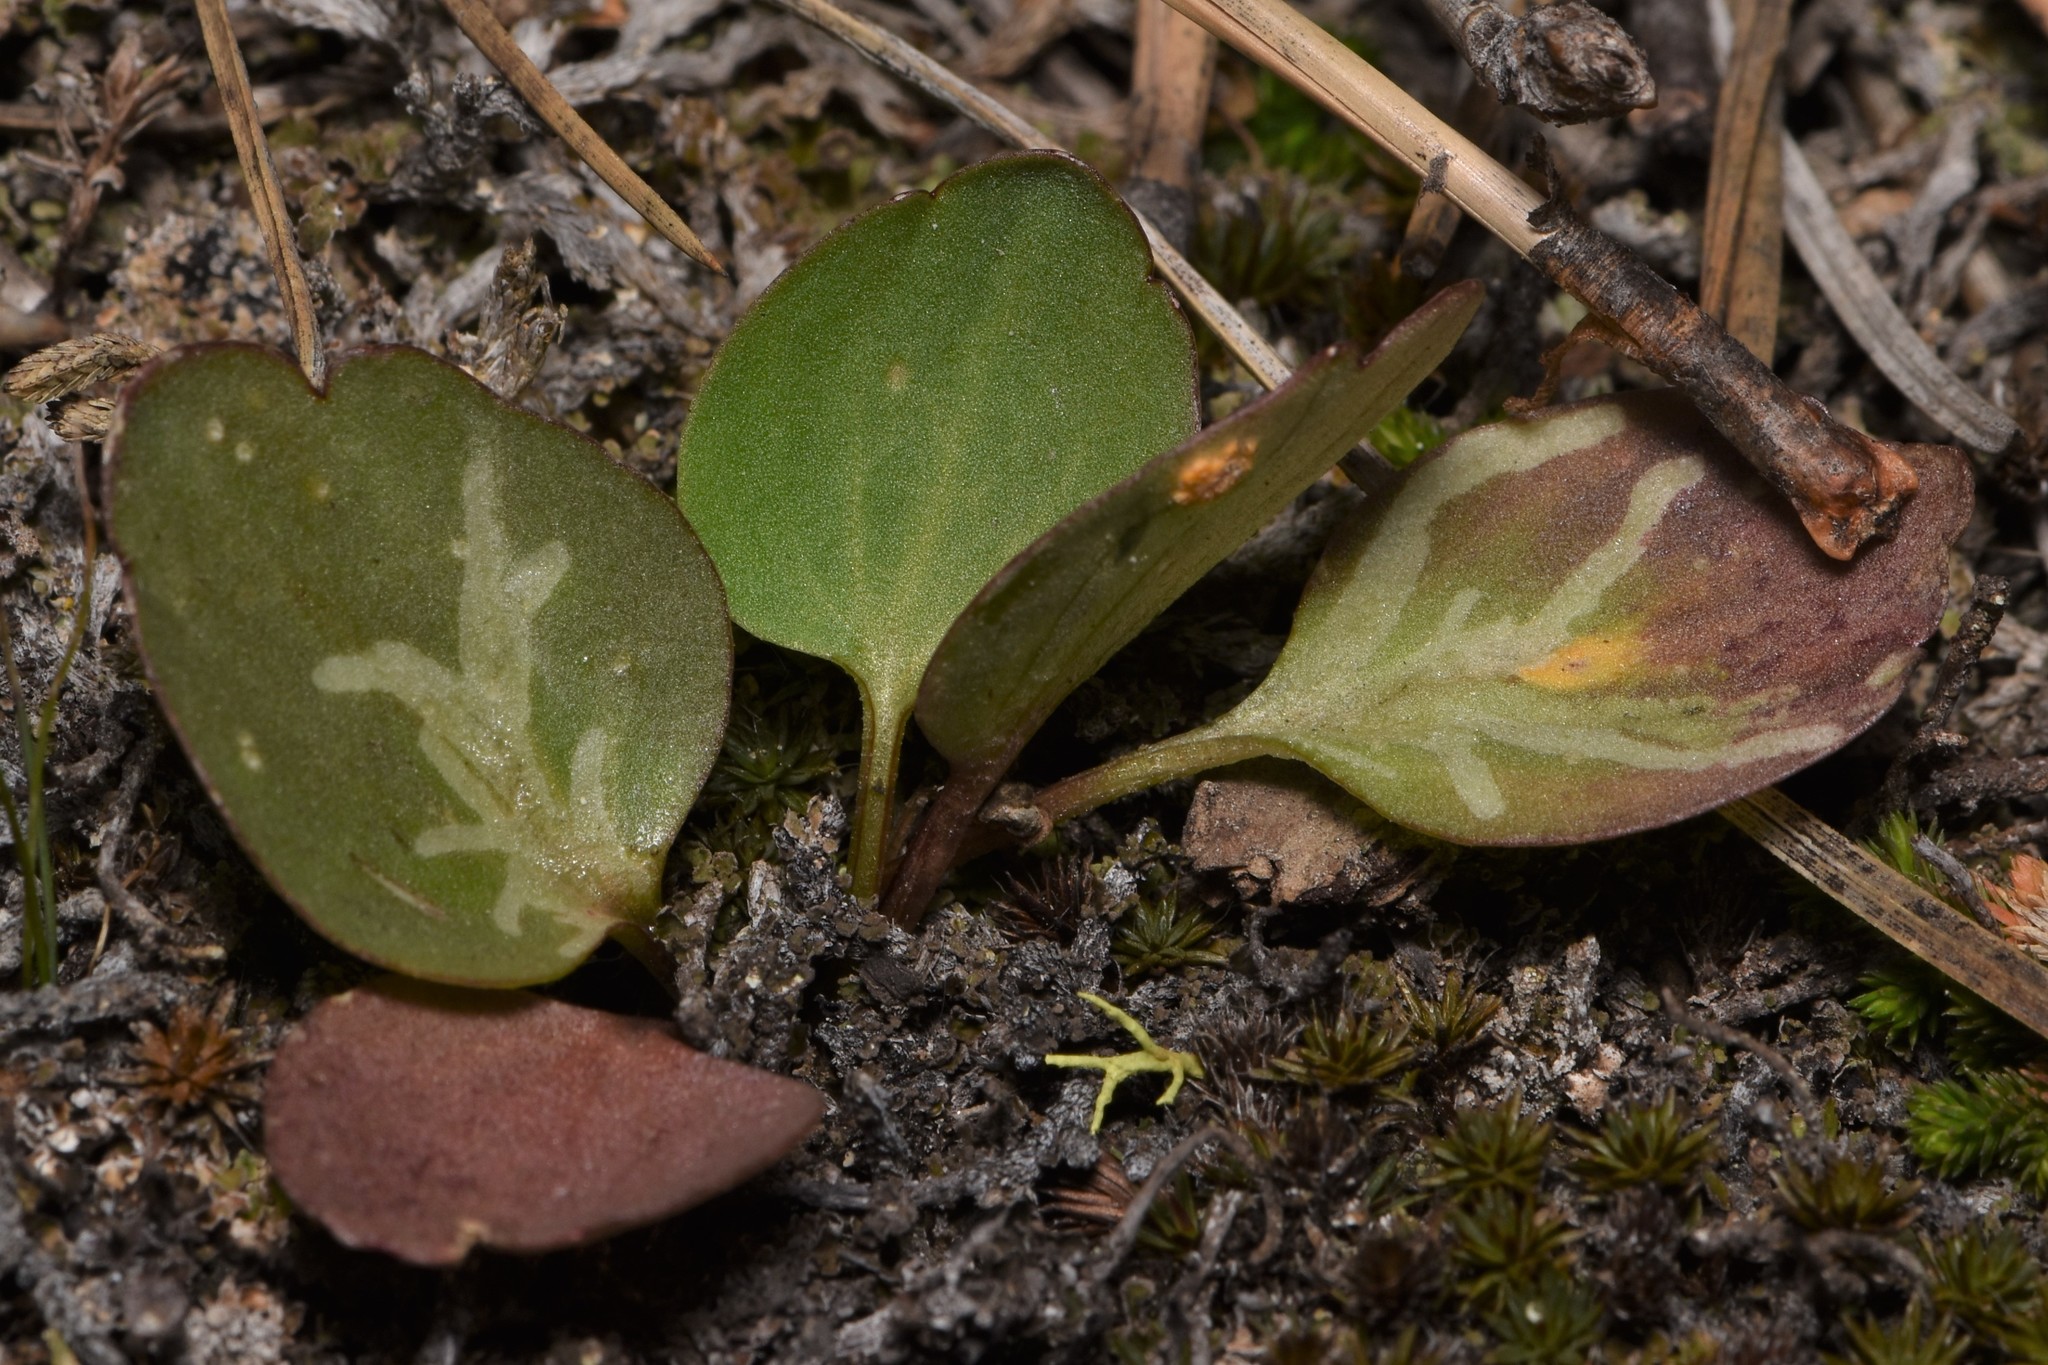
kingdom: Plantae
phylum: Tracheophyta
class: Magnoliopsida
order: Ranunculales
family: Ranunculaceae
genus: Ranunculus
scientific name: Ranunculus glaberrimus
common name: Sagebrush buttercup
